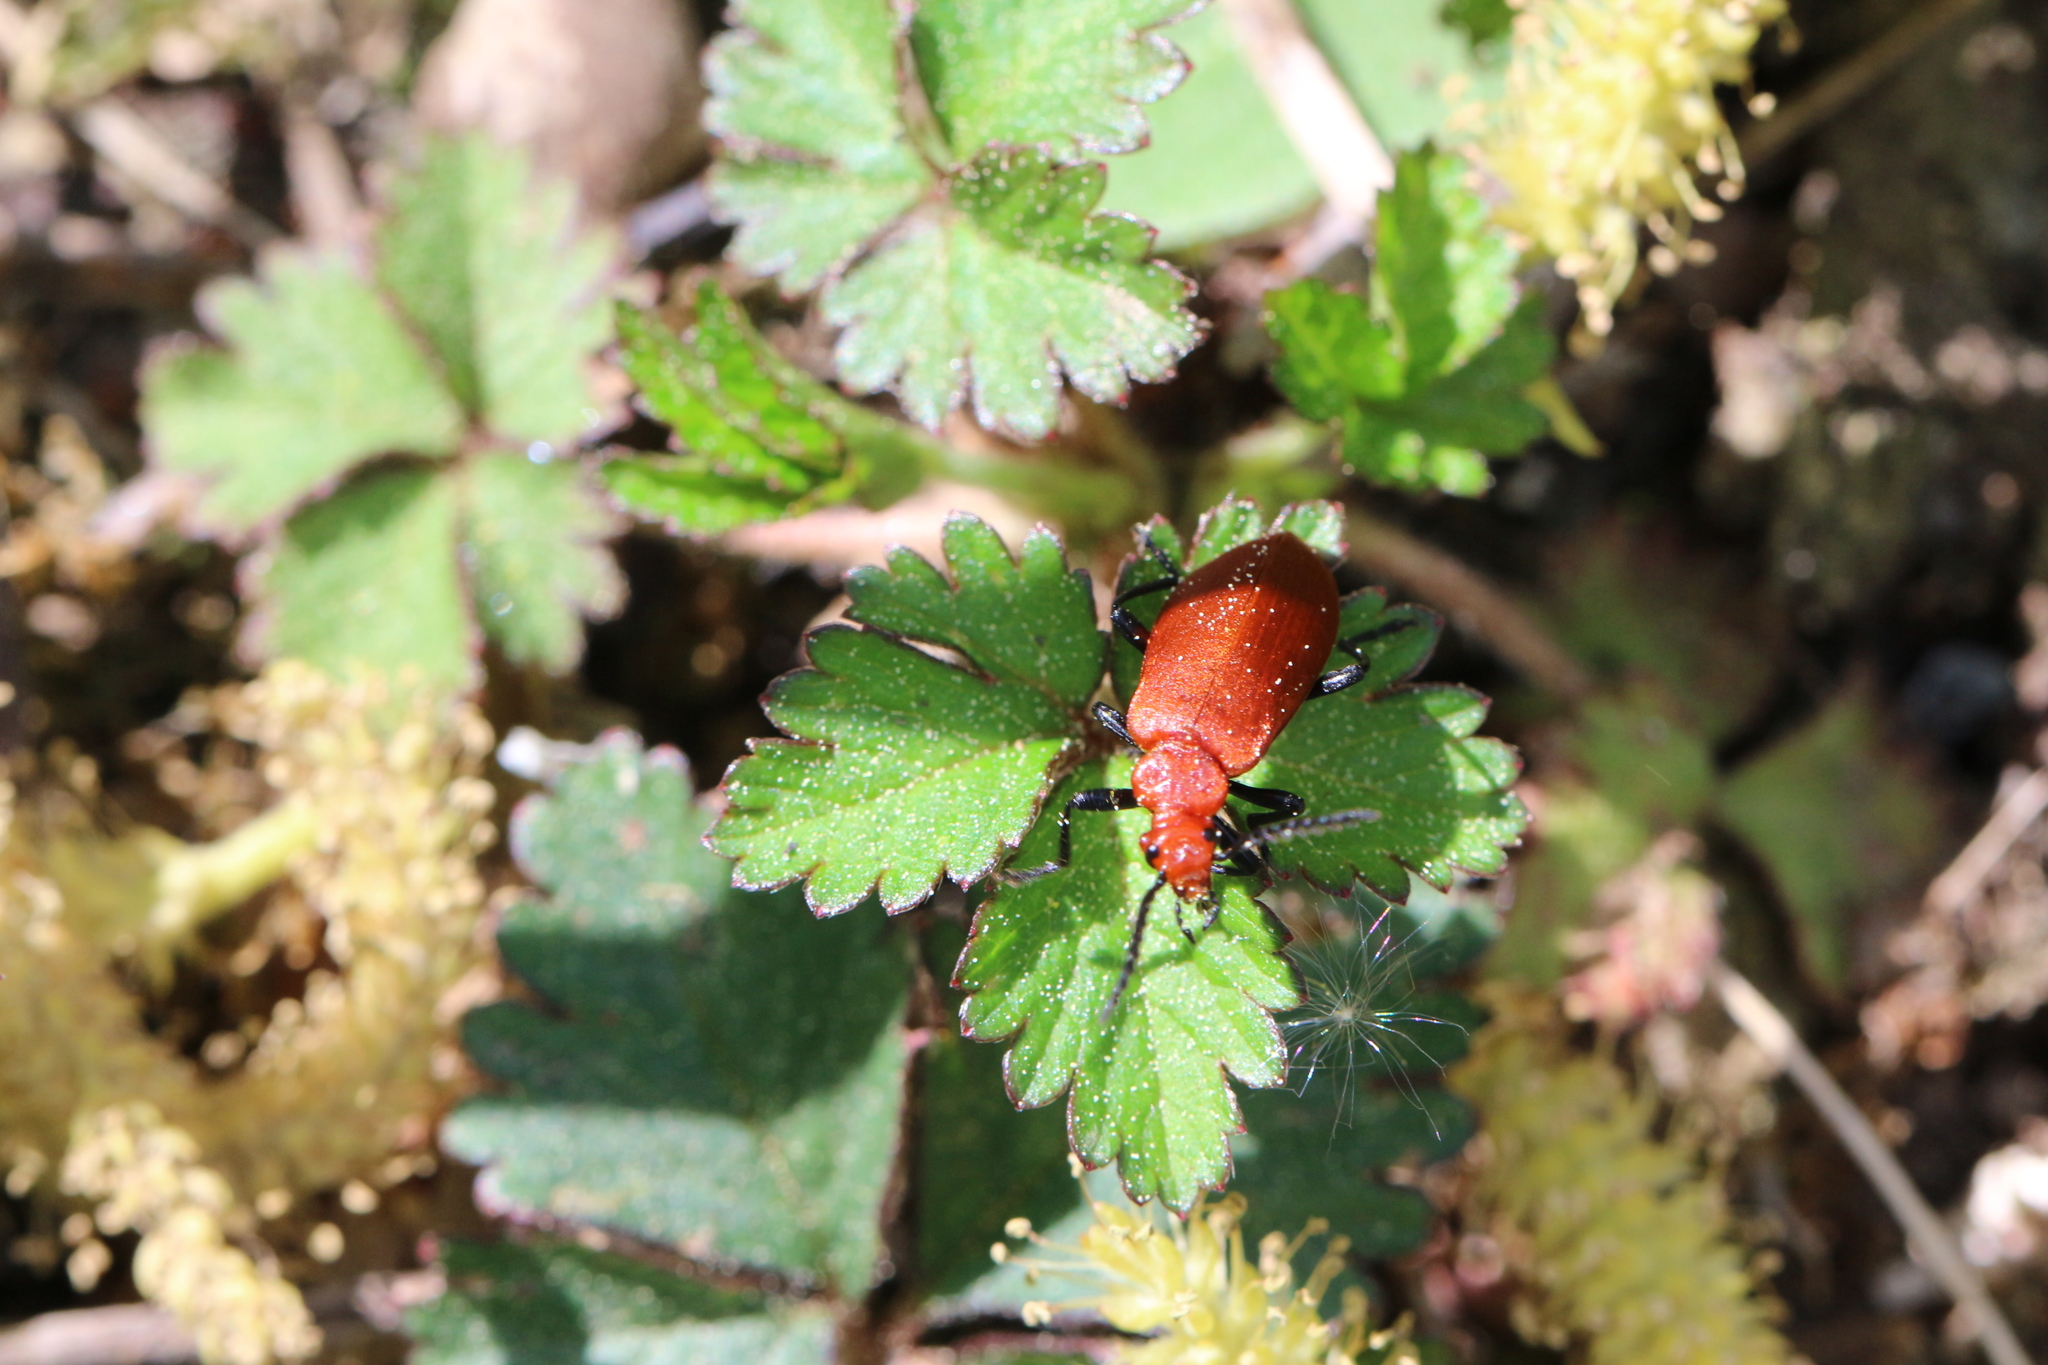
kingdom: Animalia
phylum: Arthropoda
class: Insecta
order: Coleoptera
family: Pyrochroidae
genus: Pyrochroa
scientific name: Pyrochroa serraticornis
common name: Red-headed cardinal beetle
